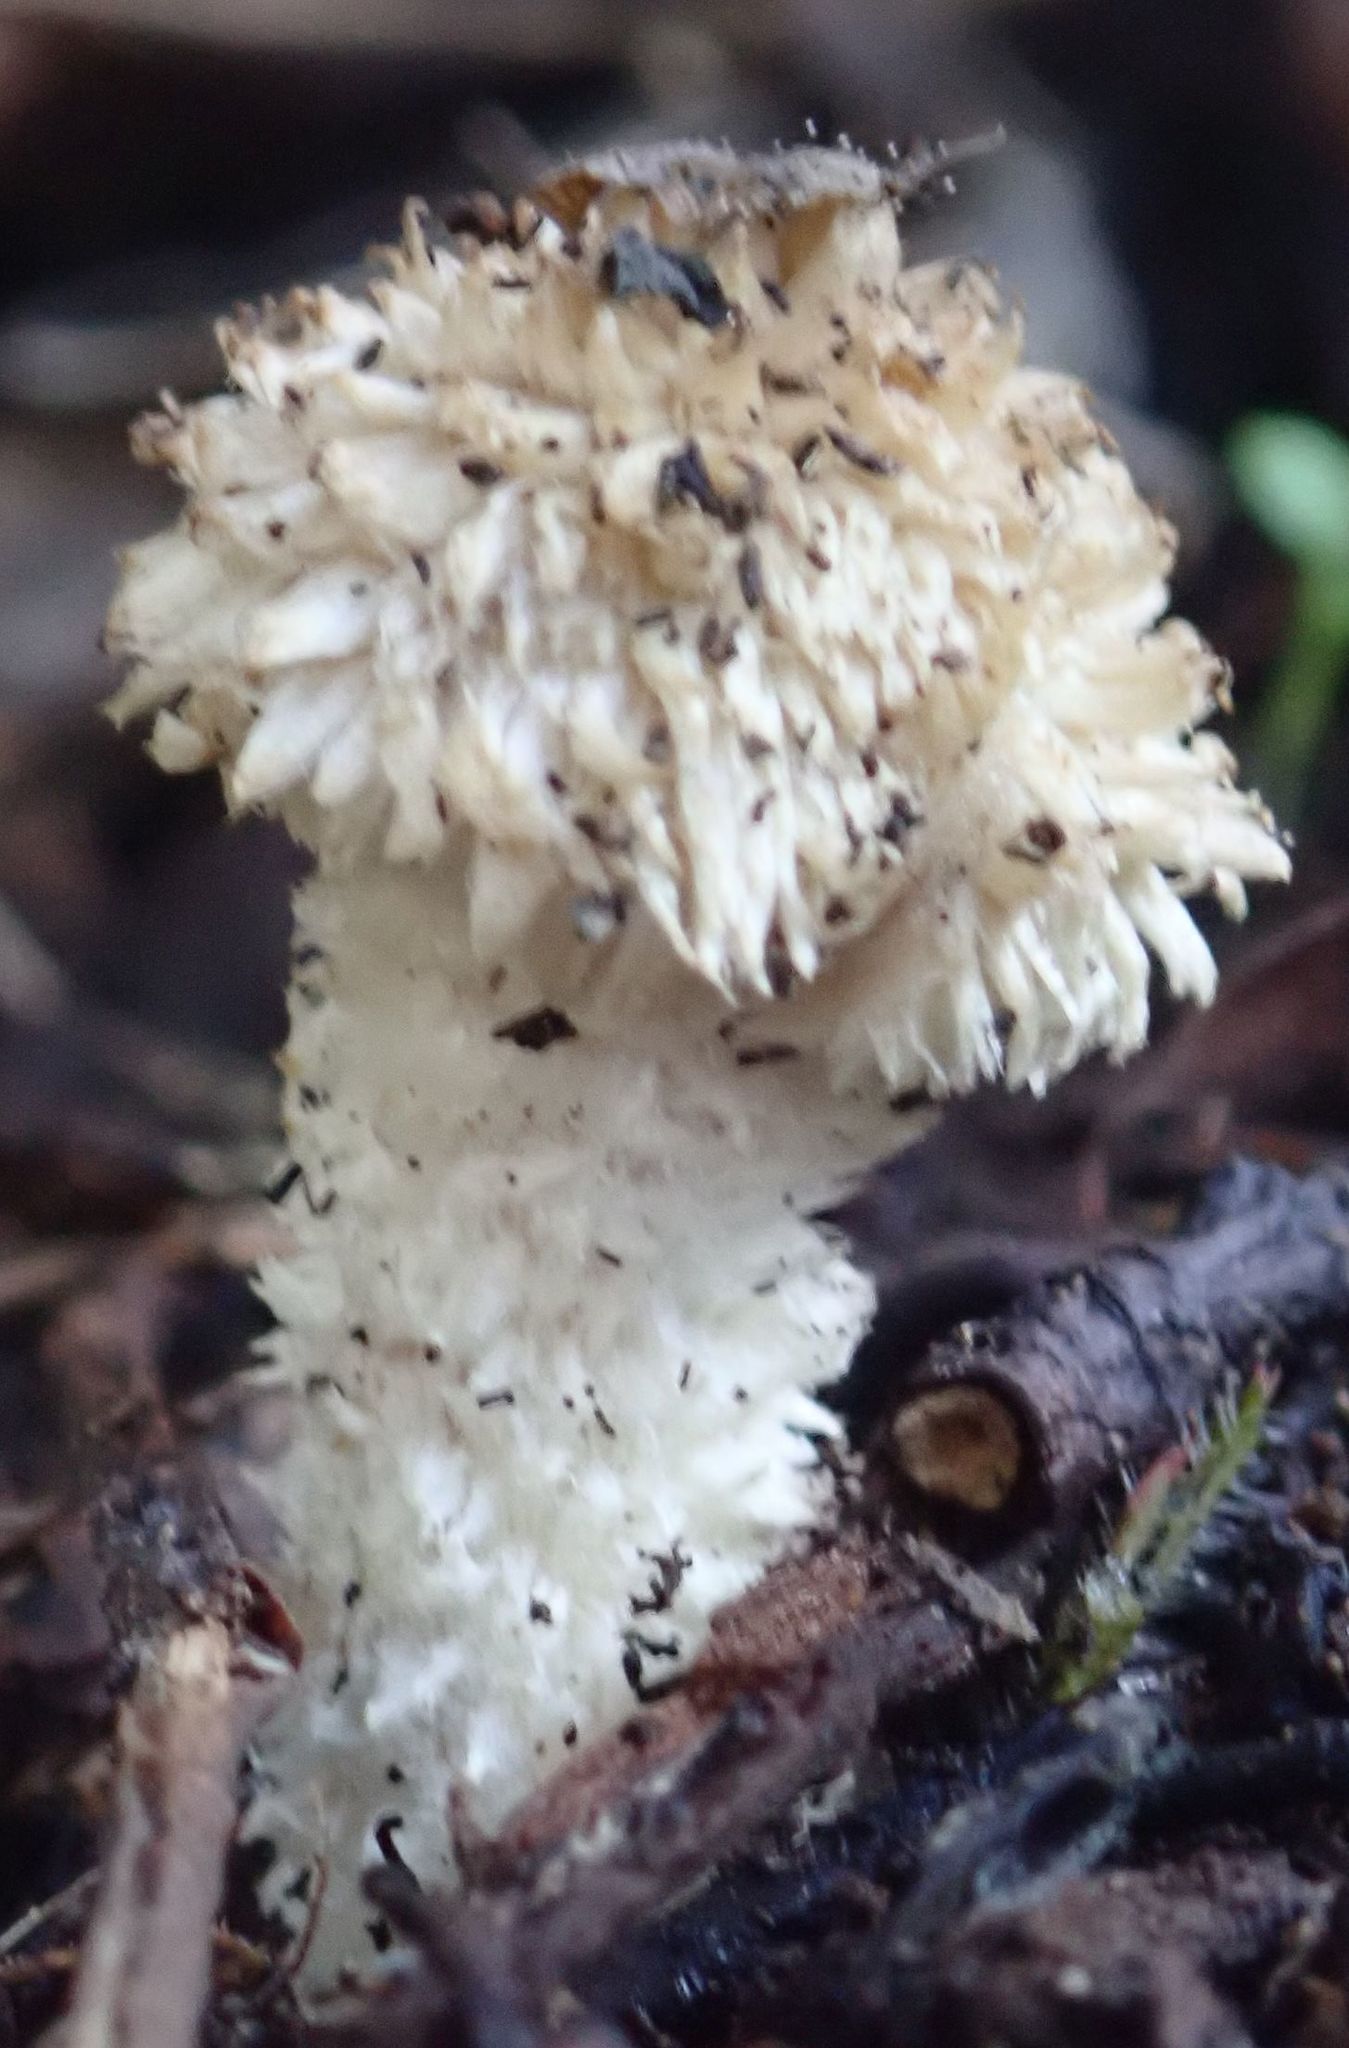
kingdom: Fungi
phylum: Basidiomycota
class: Agaricomycetes
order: Agaricales
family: Psathyrellaceae
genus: Psathyrella
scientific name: Psathyrella asperospora
